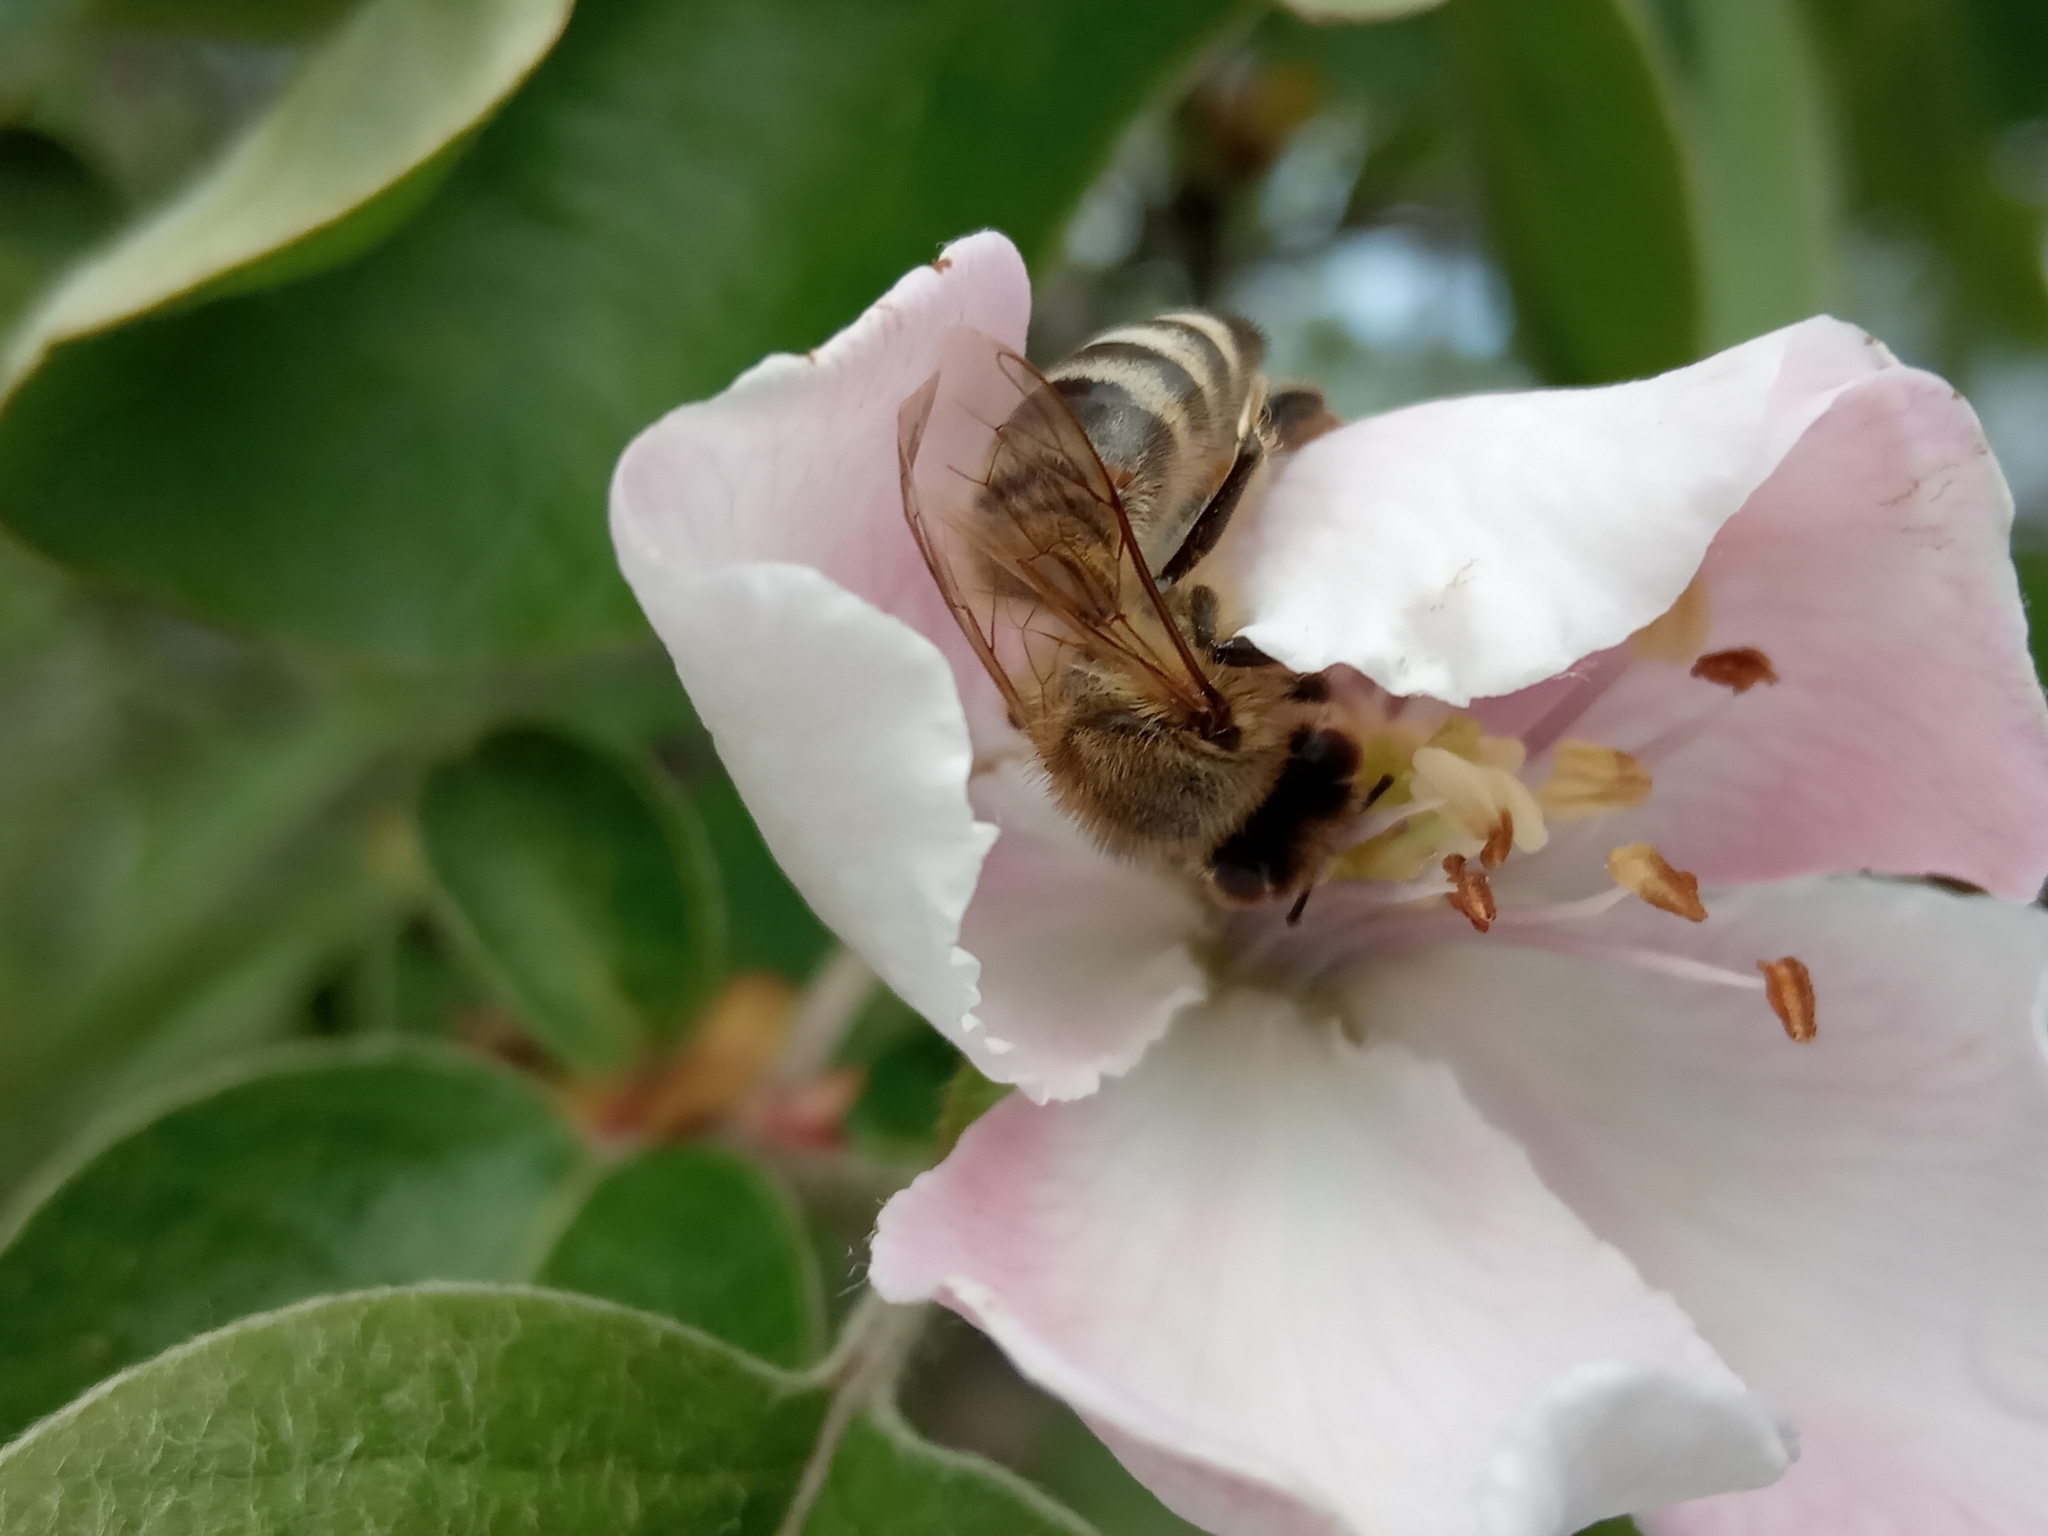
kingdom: Animalia
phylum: Arthropoda
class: Insecta
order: Hymenoptera
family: Apidae
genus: Apis
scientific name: Apis mellifera
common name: Honey bee
